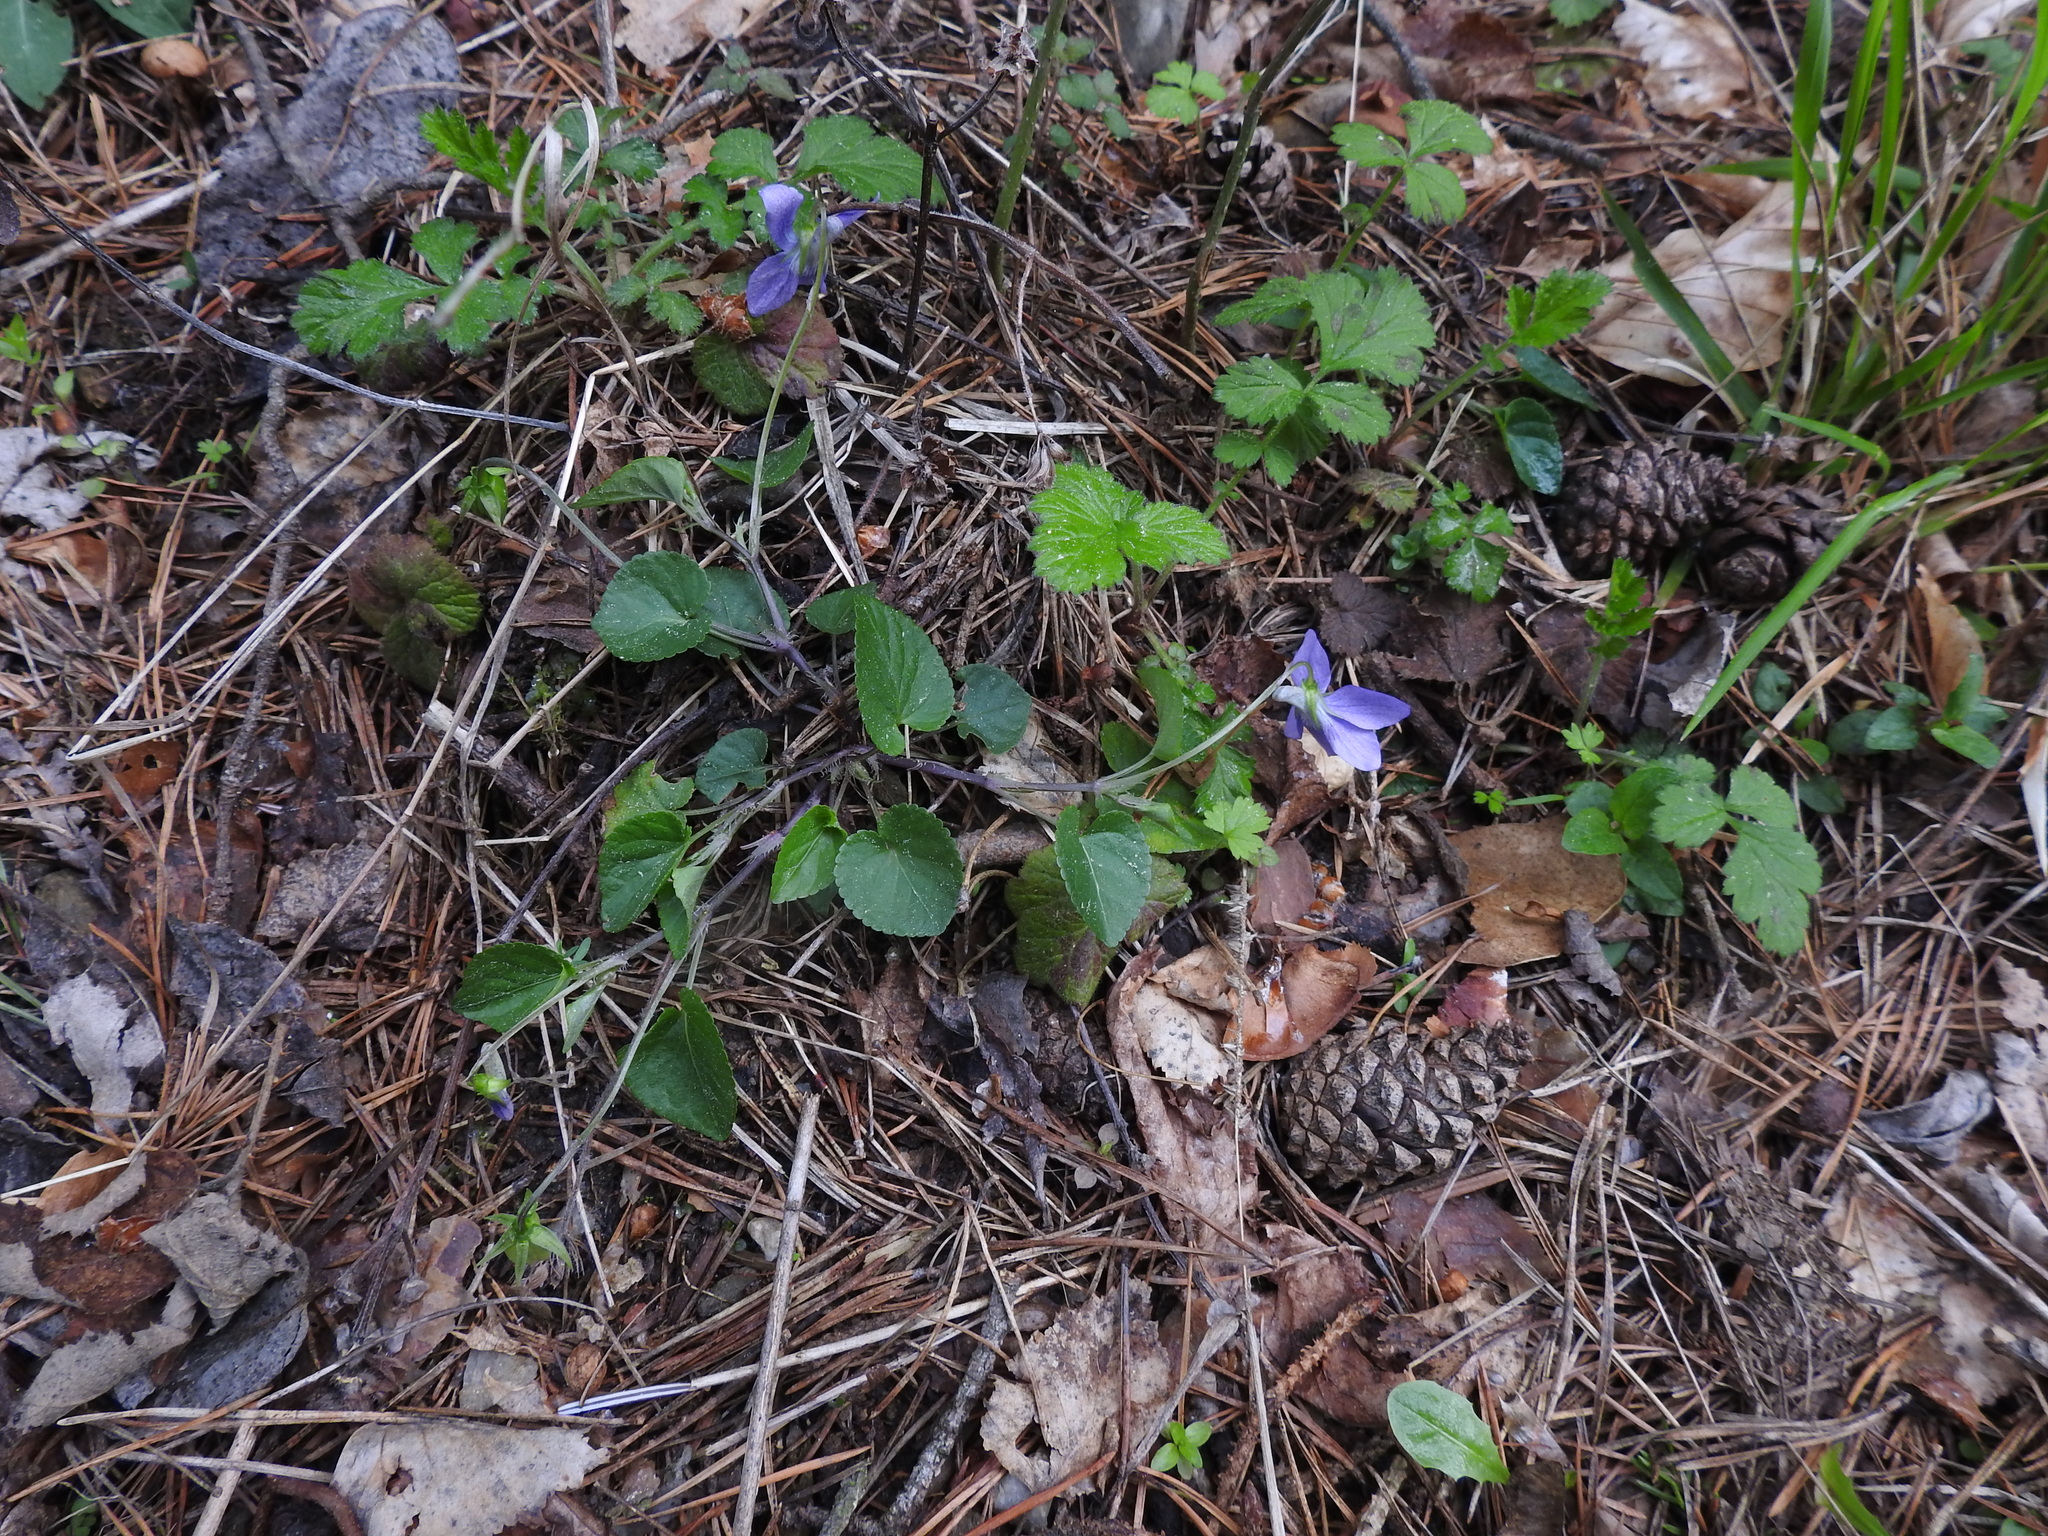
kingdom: Plantae
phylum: Tracheophyta
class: Magnoliopsida
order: Malpighiales
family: Violaceae
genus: Viola
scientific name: Viola riviniana
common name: Common dog-violet
